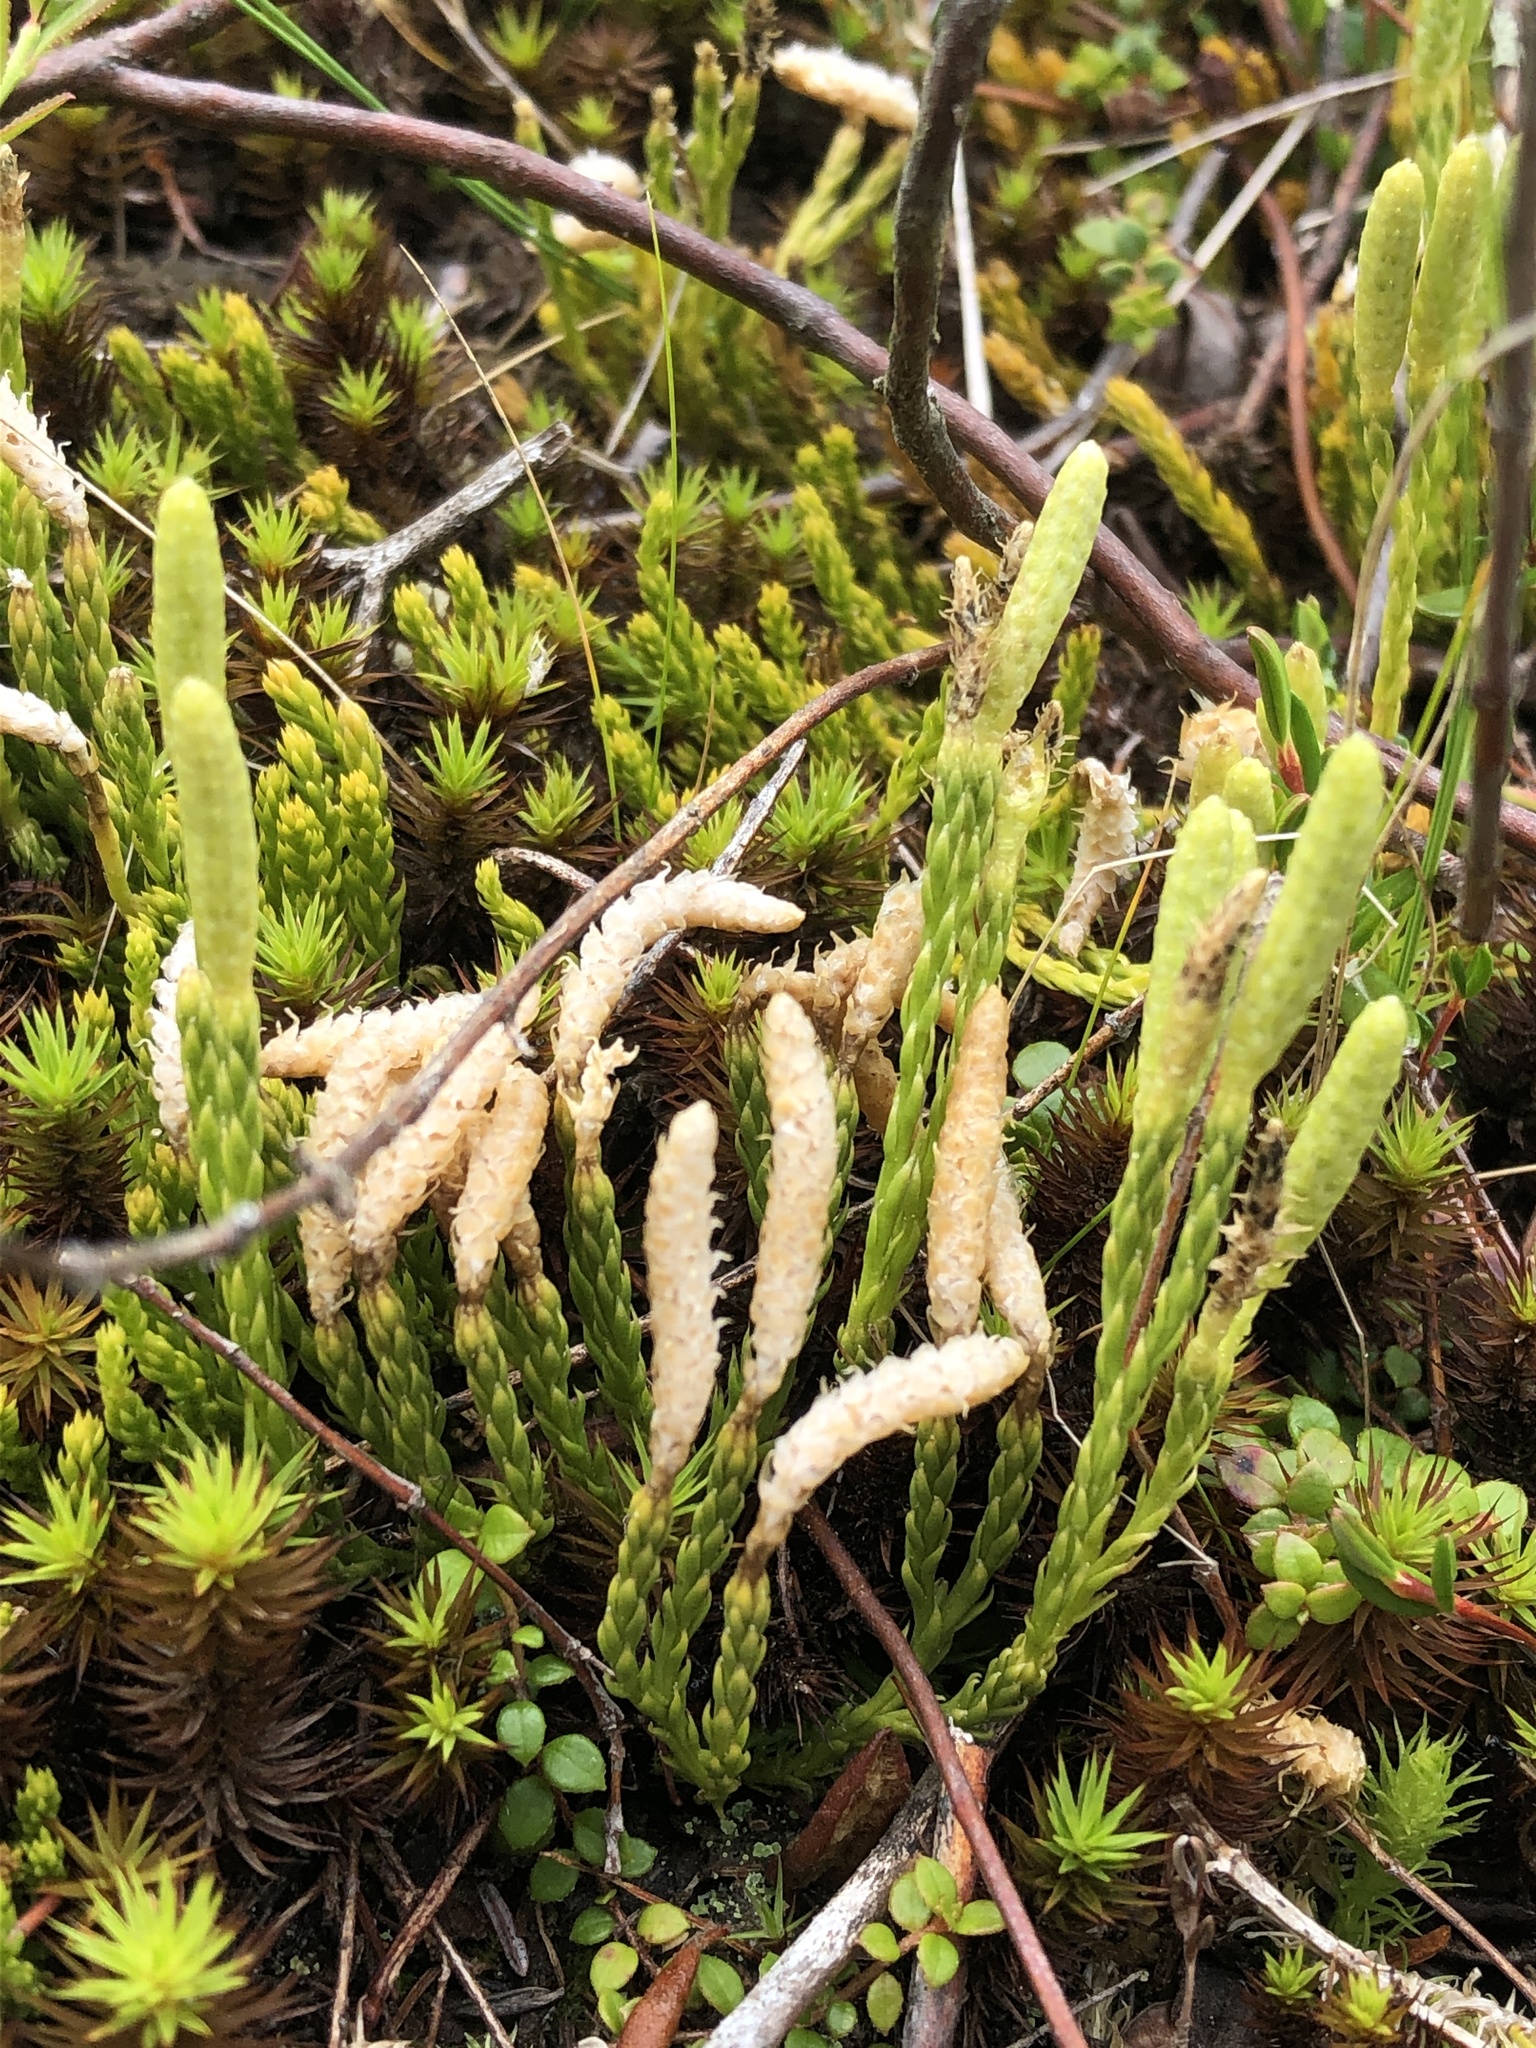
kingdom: Plantae
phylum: Tracheophyta
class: Lycopodiopsida
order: Lycopodiales
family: Lycopodiaceae
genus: Diphasiastrum
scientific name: Diphasiastrum sitchense
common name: Alaska clubmoss
